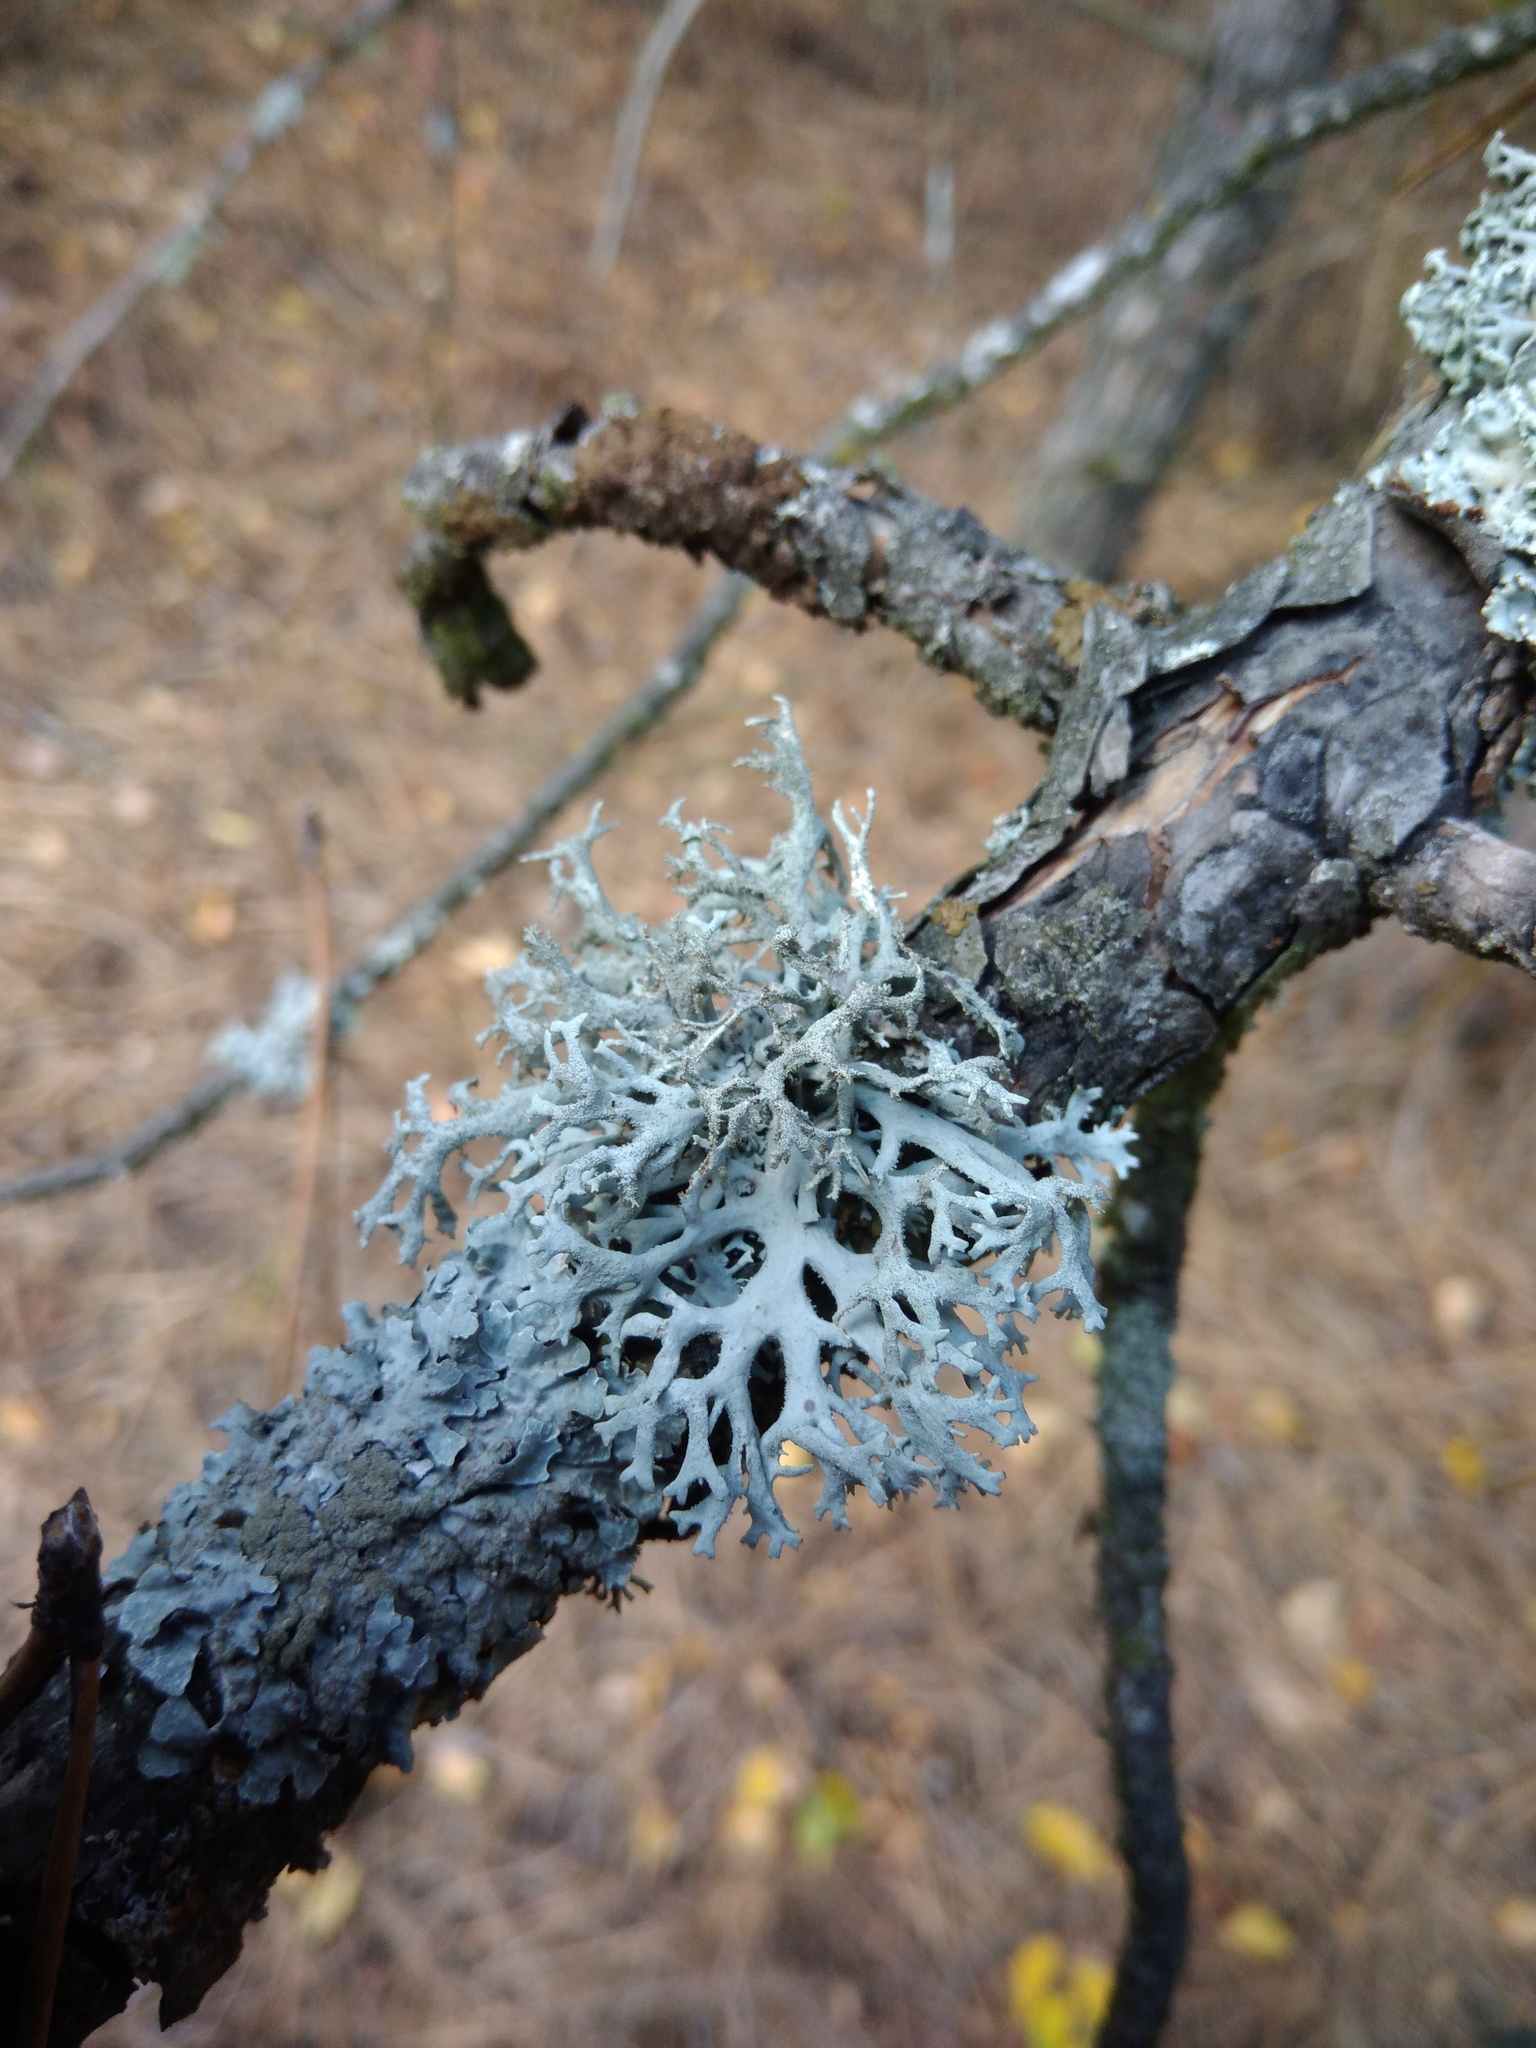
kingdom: Fungi
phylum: Ascomycota
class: Lecanoromycetes
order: Lecanorales
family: Parmeliaceae
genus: Pseudevernia
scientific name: Pseudevernia furfuracea
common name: Tree moss
